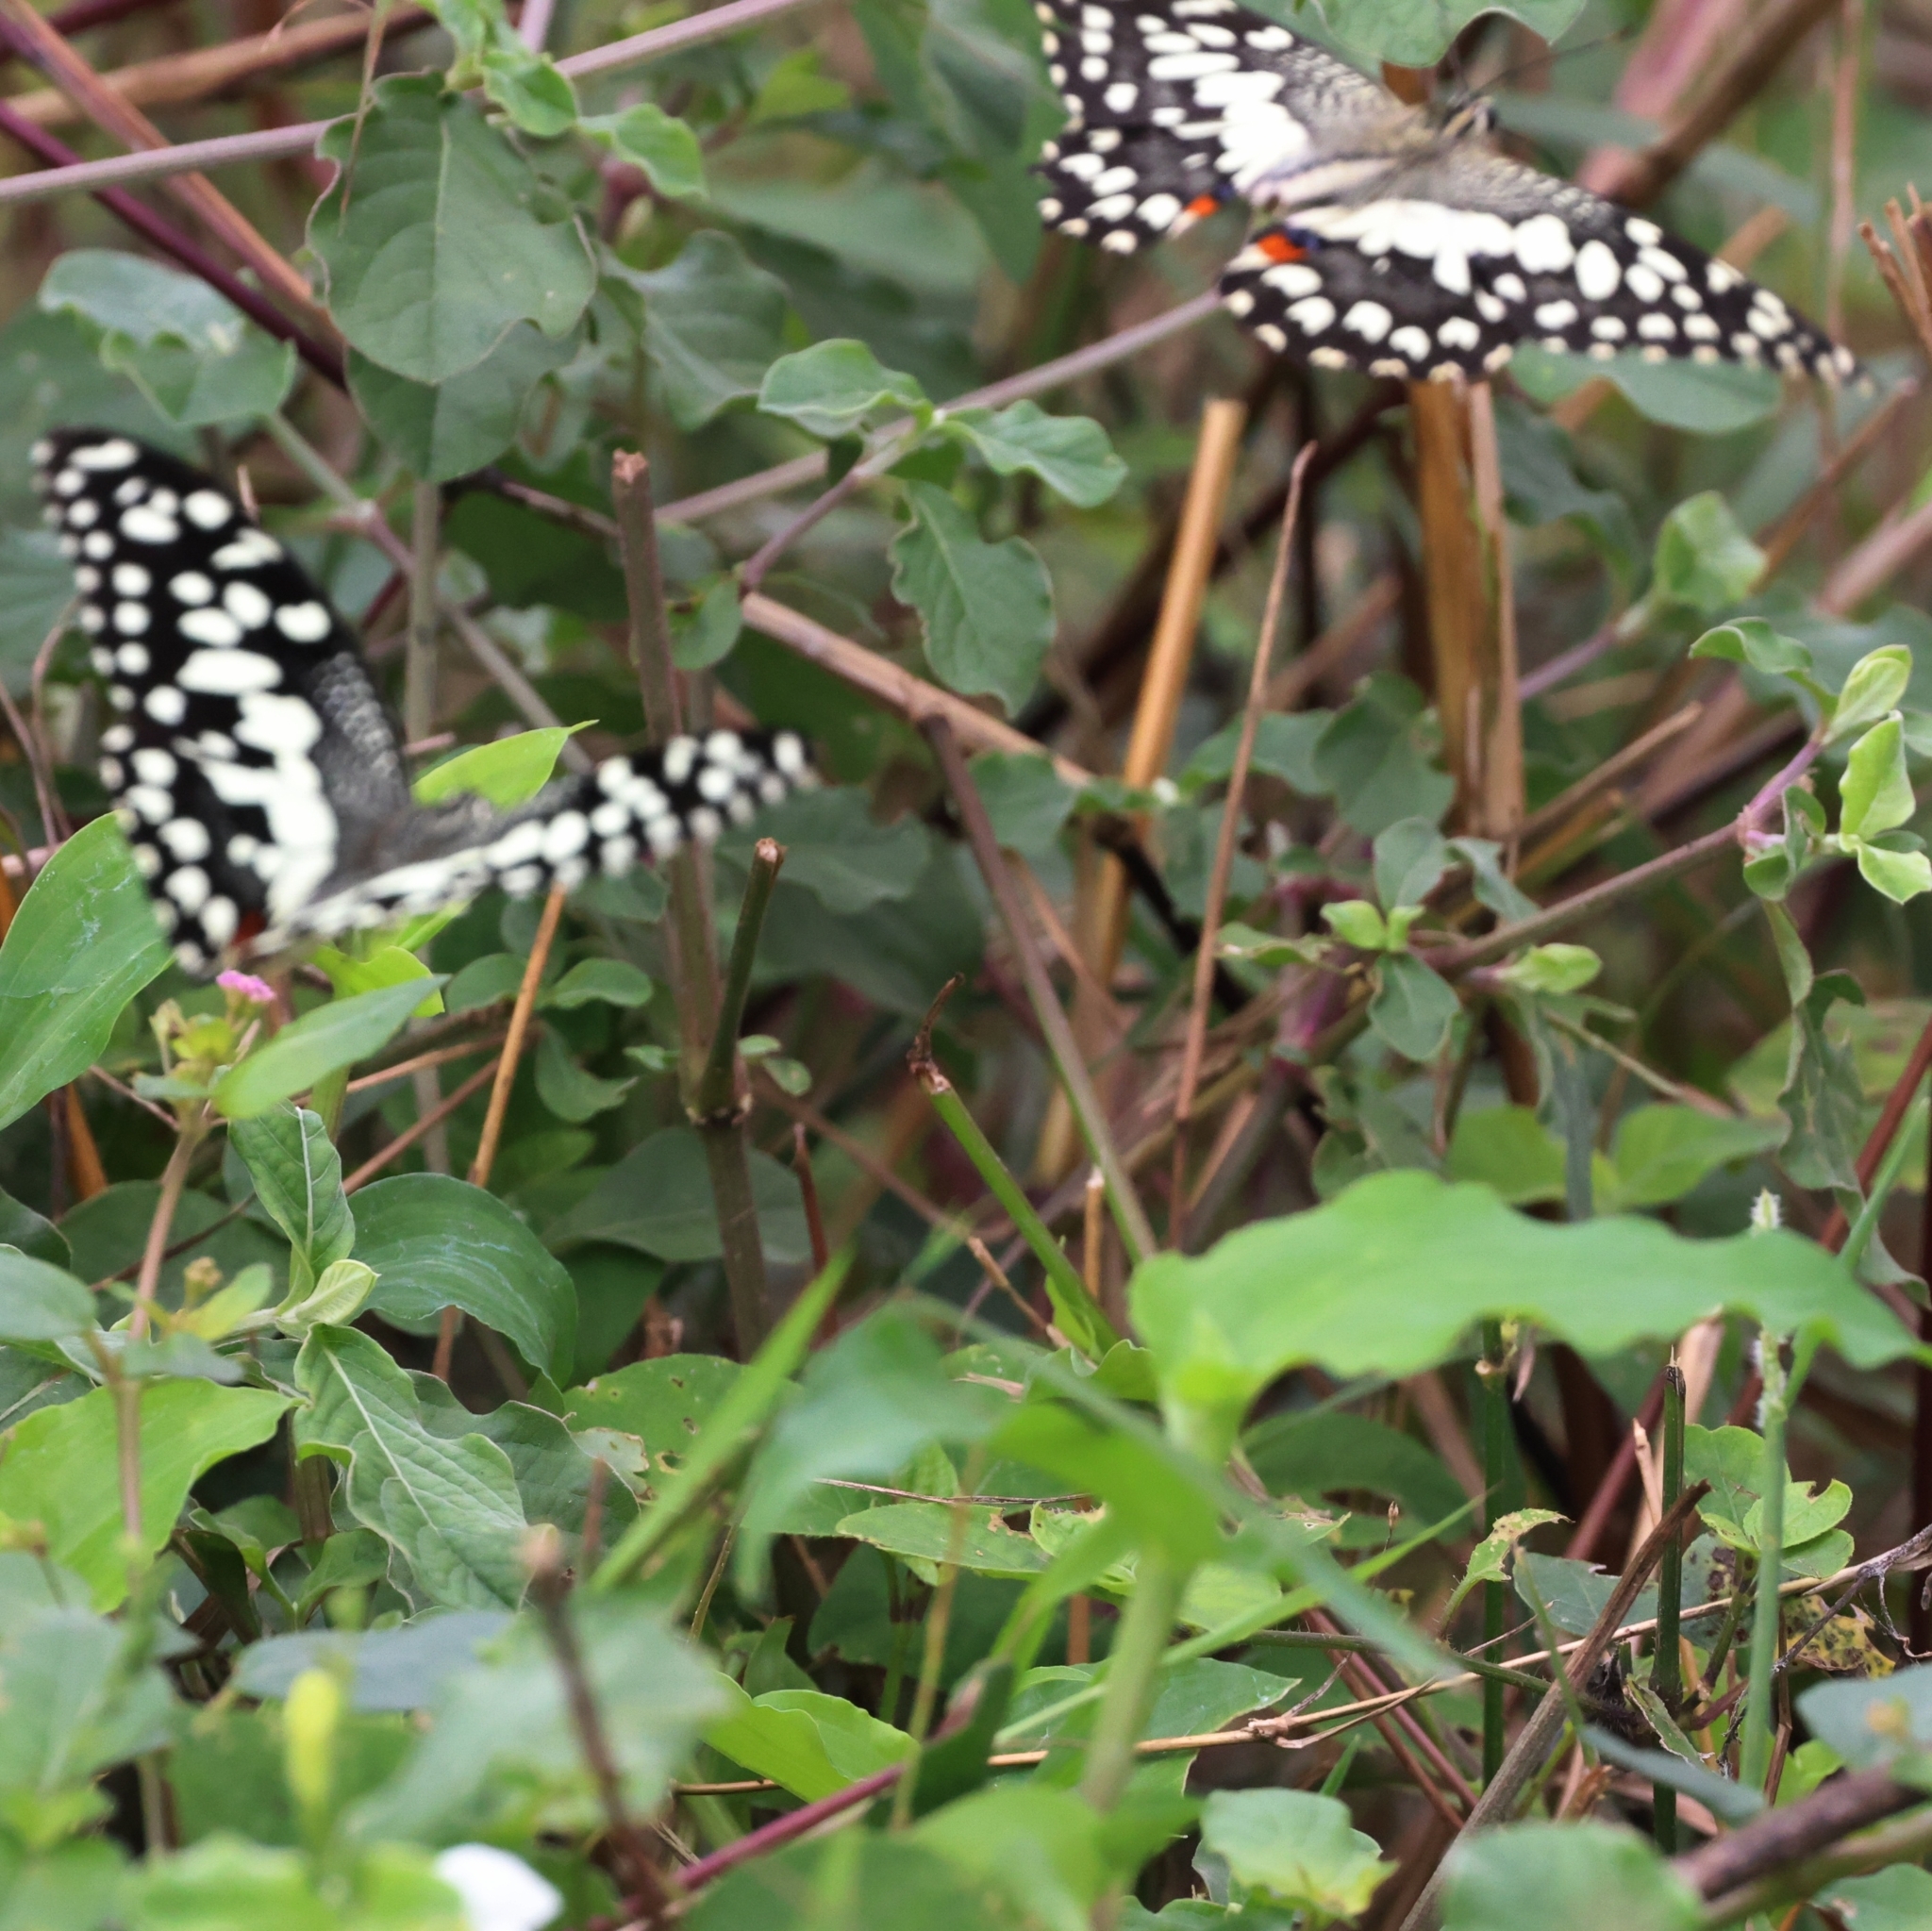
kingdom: Animalia
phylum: Arthropoda
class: Insecta
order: Lepidoptera
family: Papilionidae
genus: Papilio
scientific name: Papilio demoleus
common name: Lime butterfly
